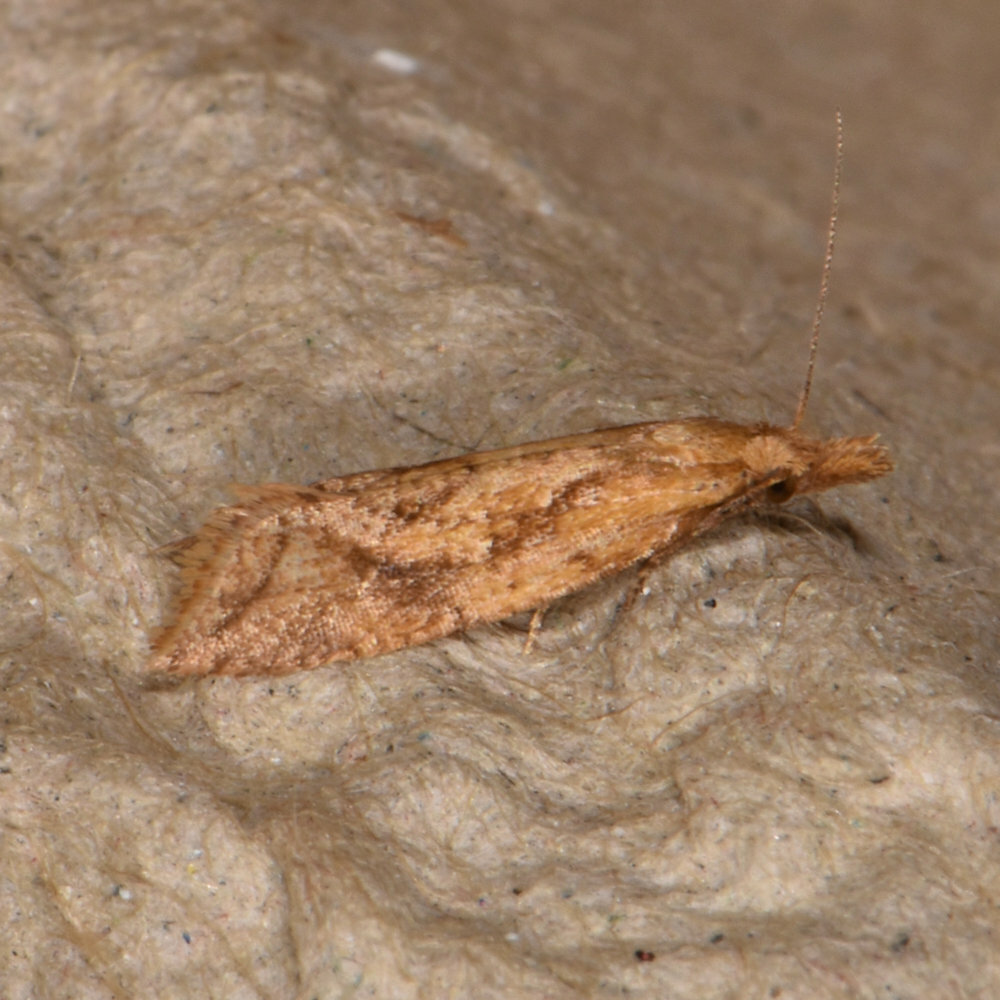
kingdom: Animalia
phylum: Arthropoda
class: Insecta
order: Lepidoptera
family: Tortricidae
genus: Aethes
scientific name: Aethes biscana
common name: Reddish aethes
